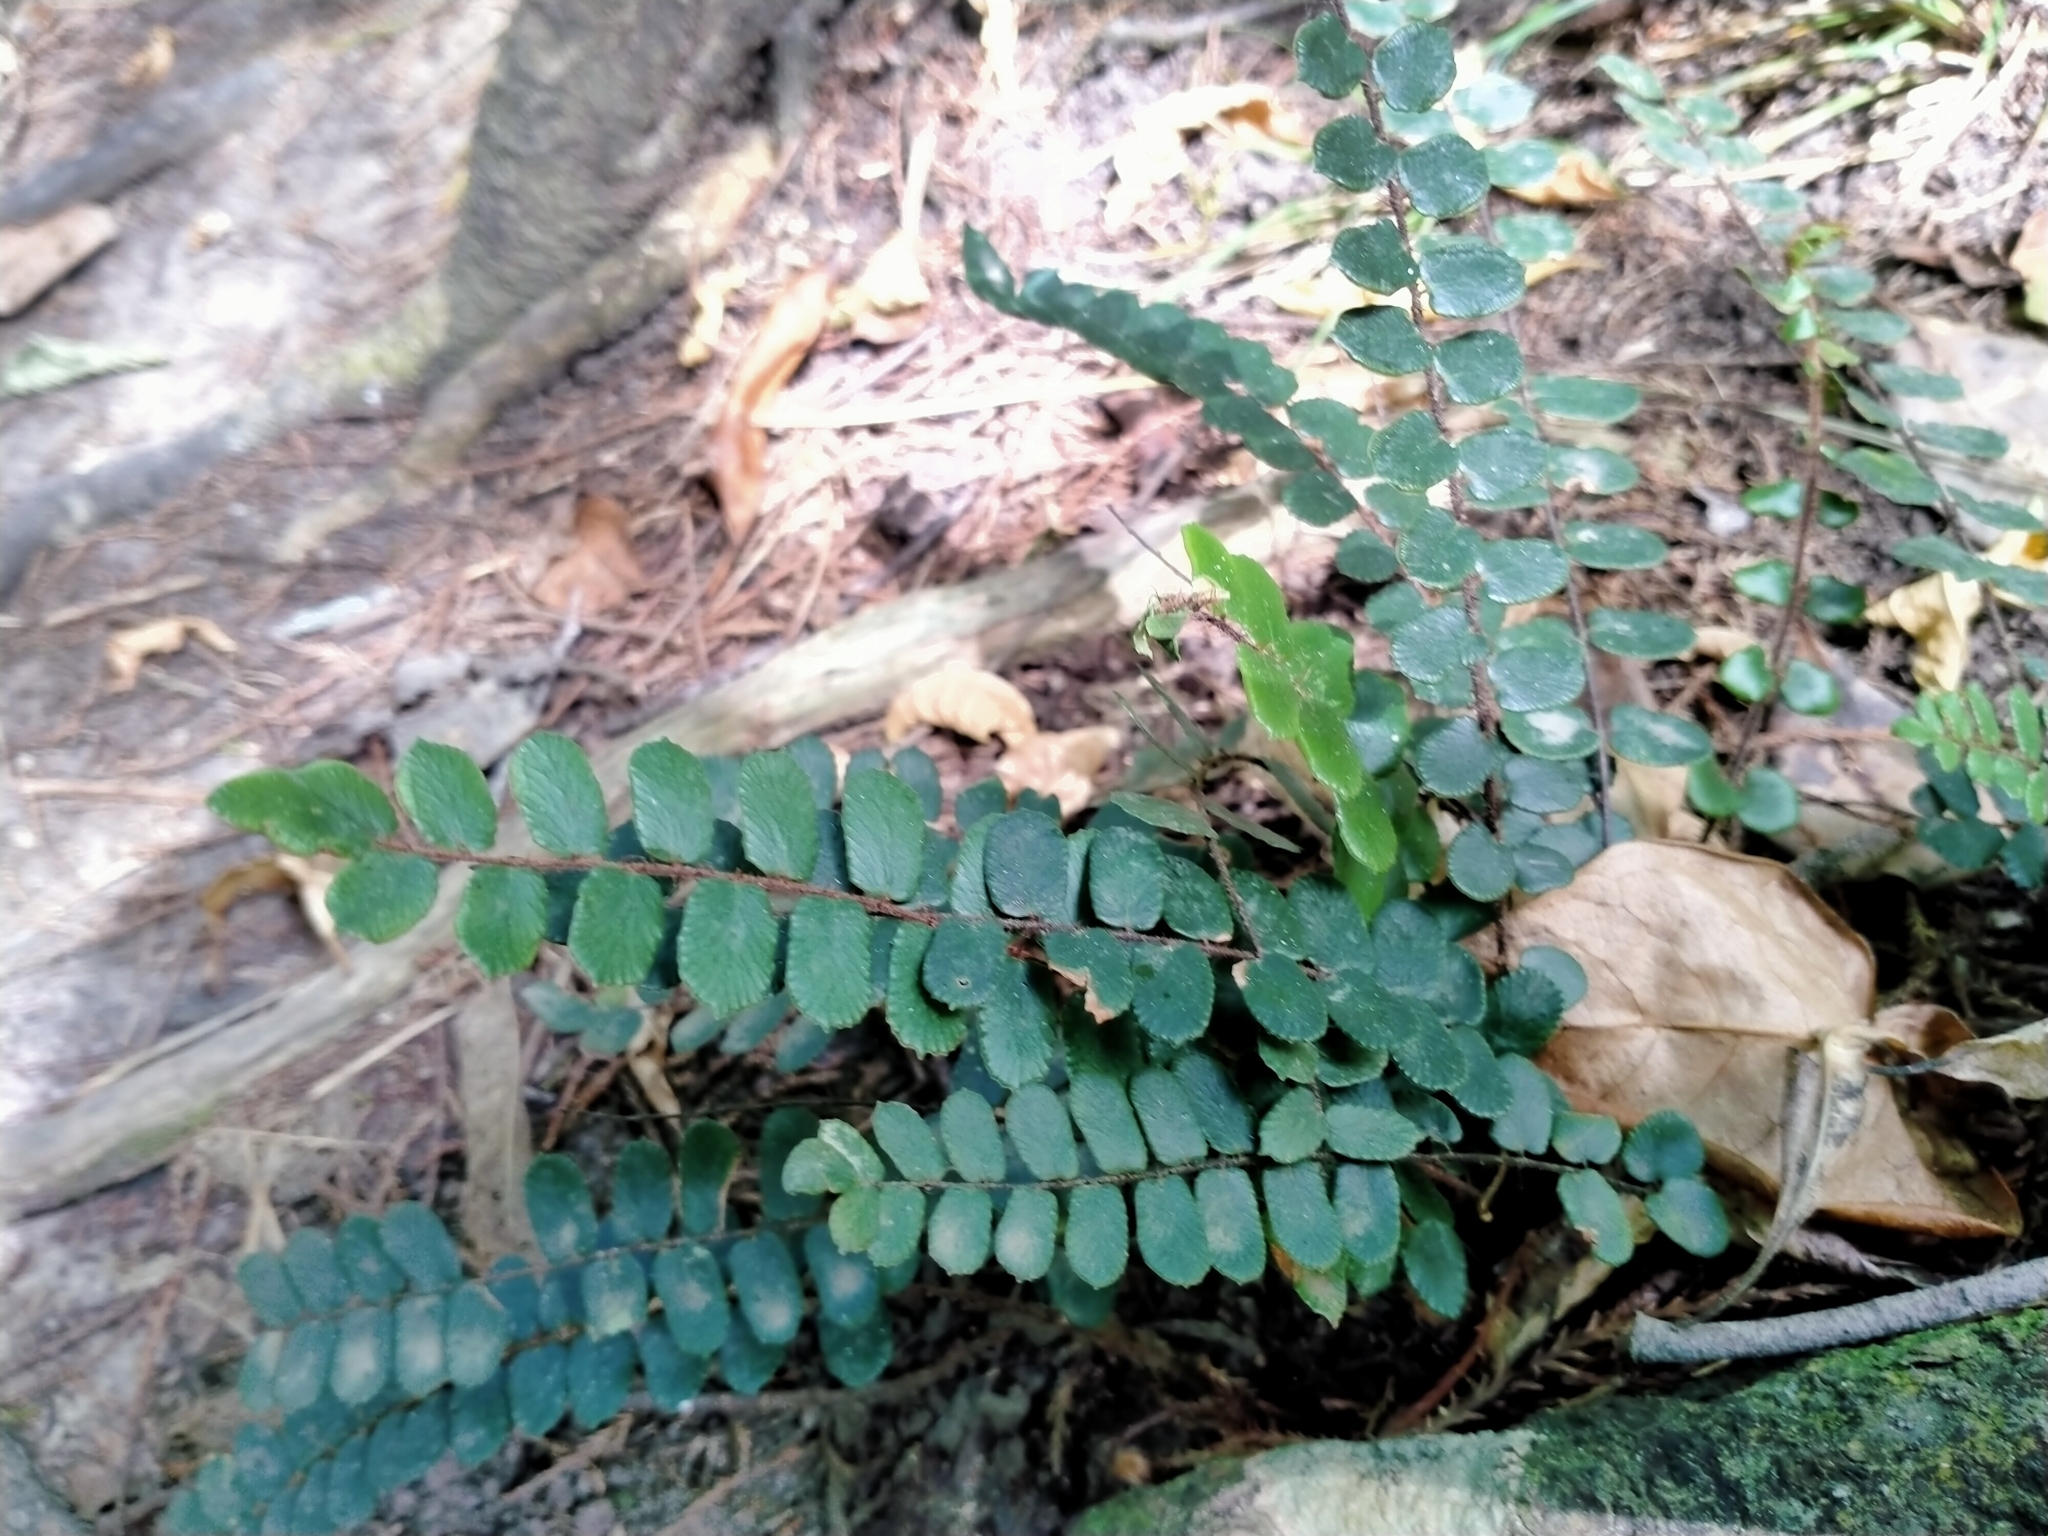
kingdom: Plantae
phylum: Tracheophyta
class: Polypodiopsida
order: Polypodiales
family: Pteridaceae
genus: Pellaea
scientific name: Pellaea rotundifolia
